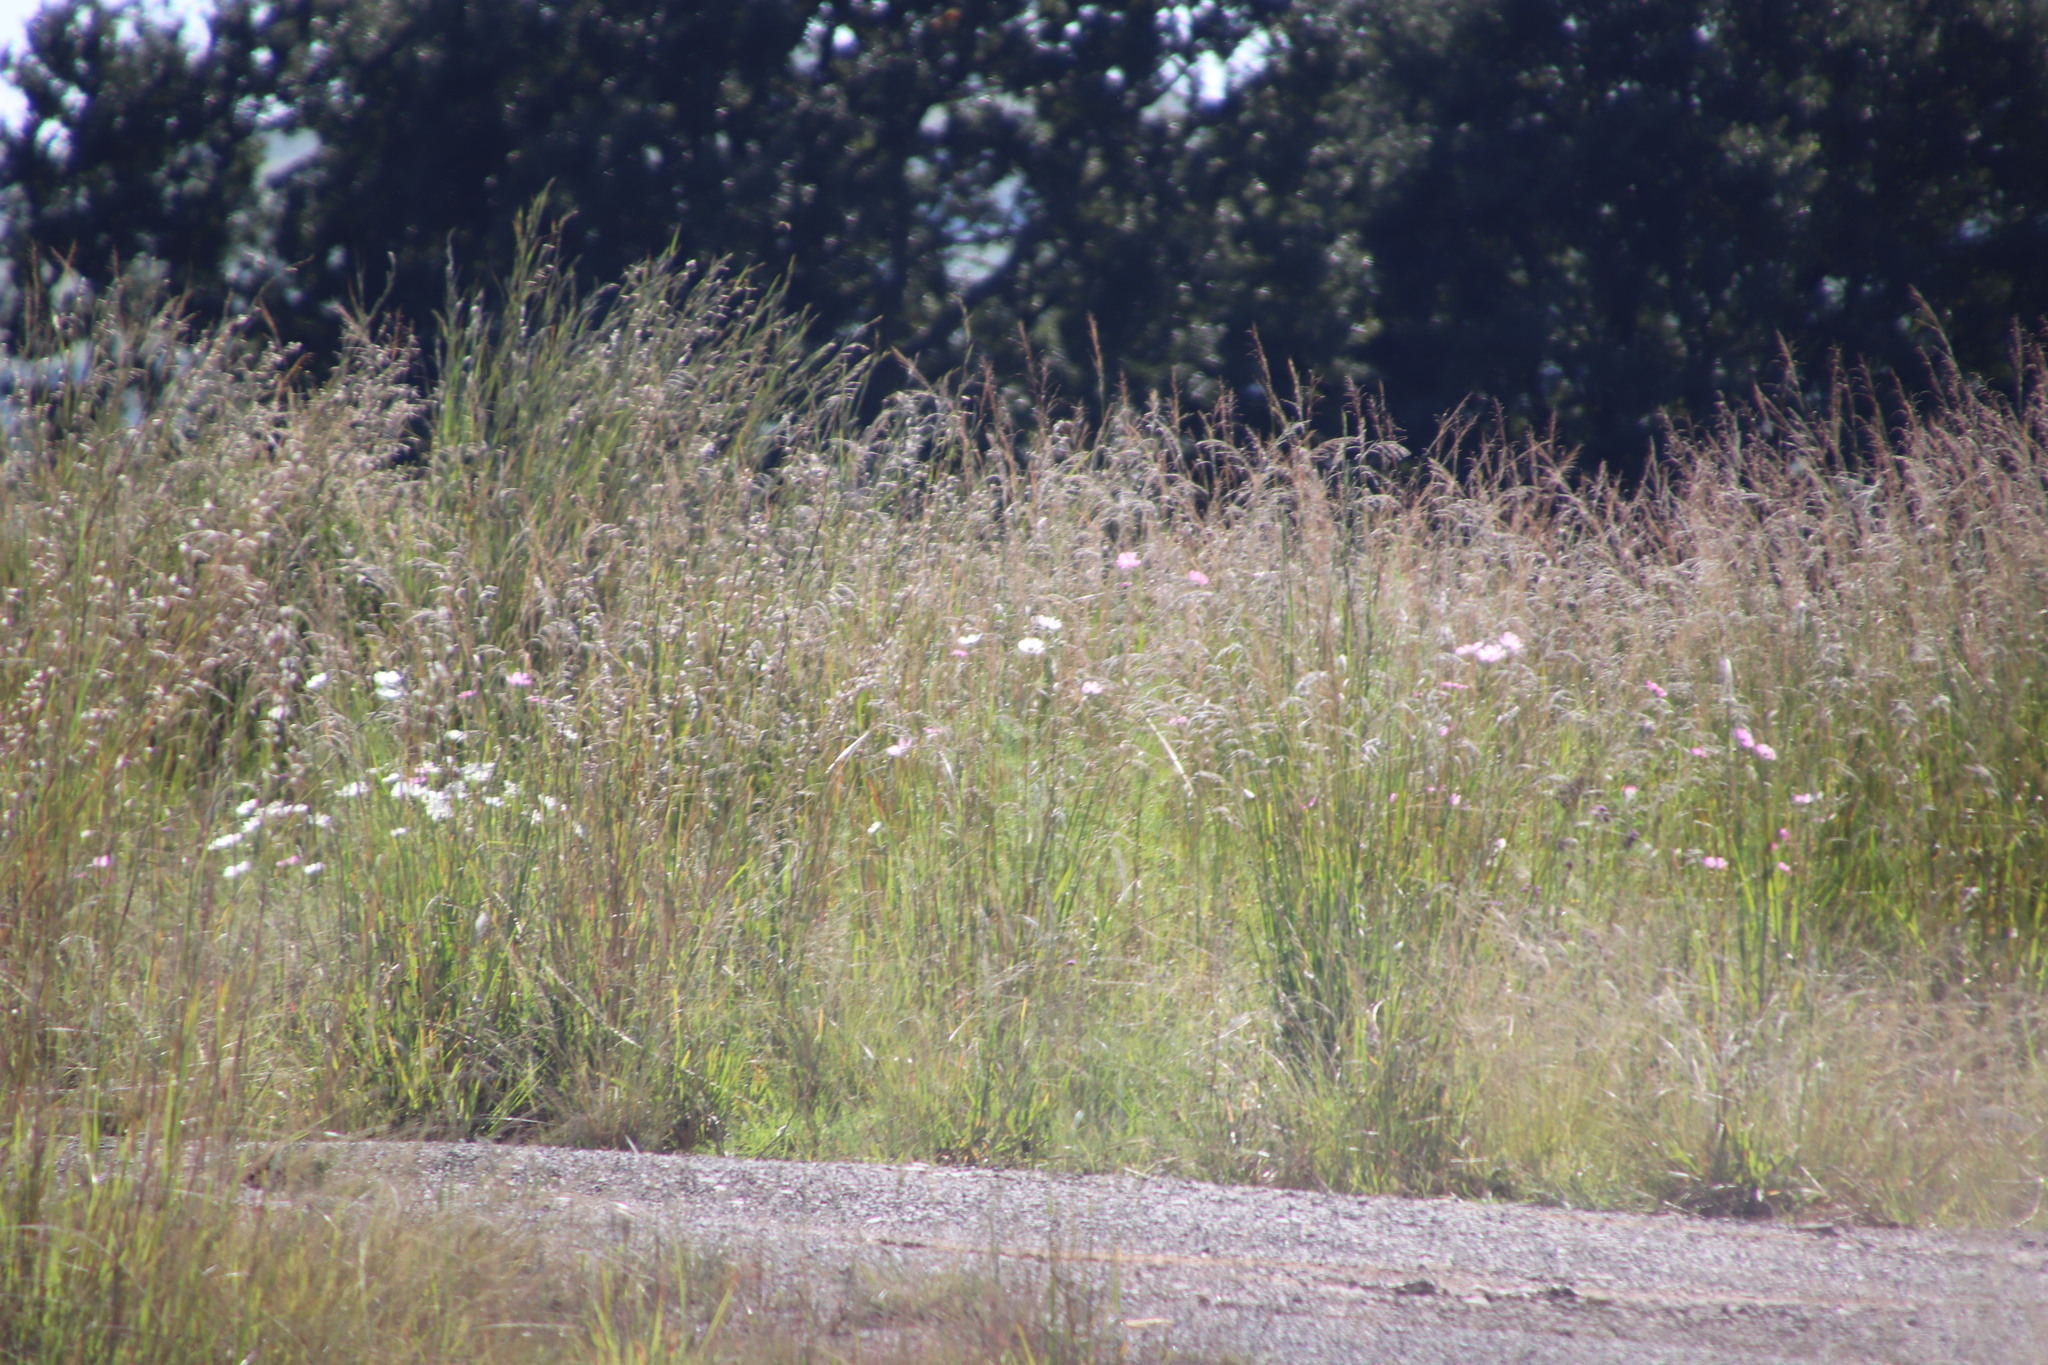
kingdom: Plantae
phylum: Tracheophyta
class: Magnoliopsida
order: Asterales
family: Asteraceae
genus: Cosmos
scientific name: Cosmos bipinnatus
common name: Garden cosmos
